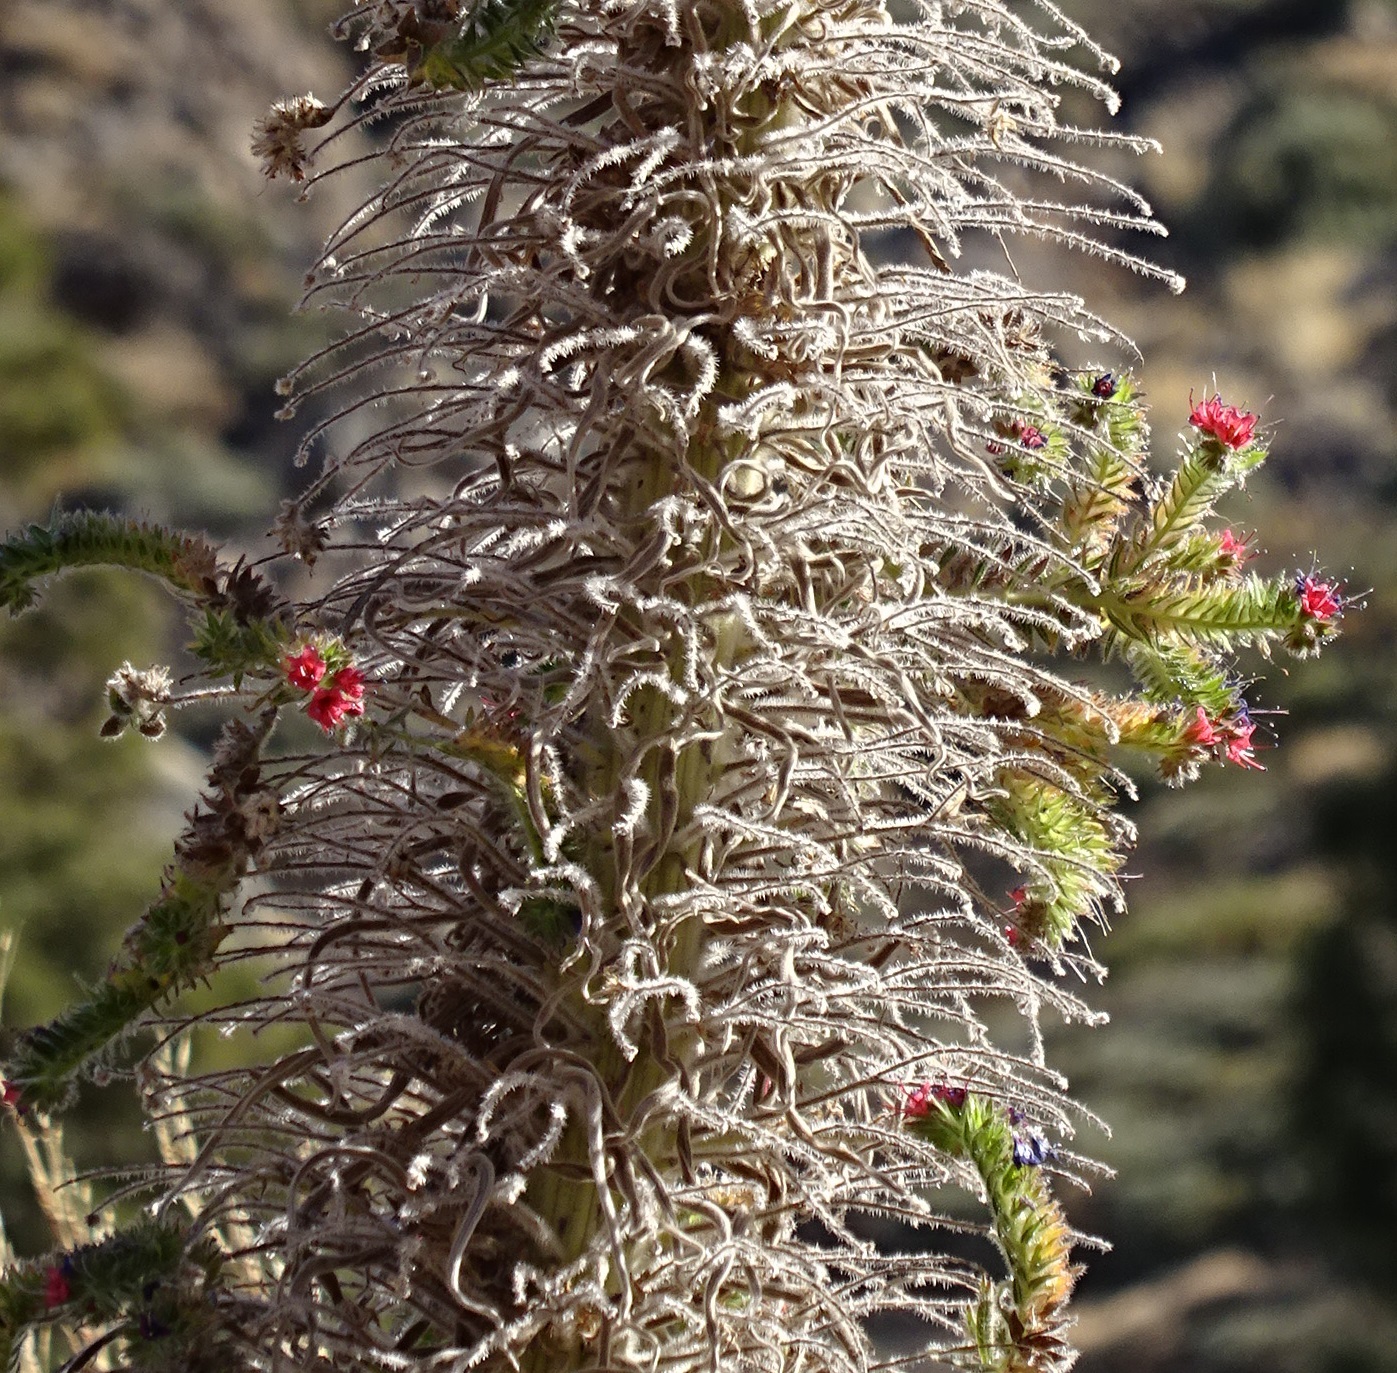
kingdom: Plantae
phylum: Tracheophyta
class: Magnoliopsida
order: Boraginales
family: Boraginaceae
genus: Echium
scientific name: Echium wildpretii
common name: Tower-of-jewels
